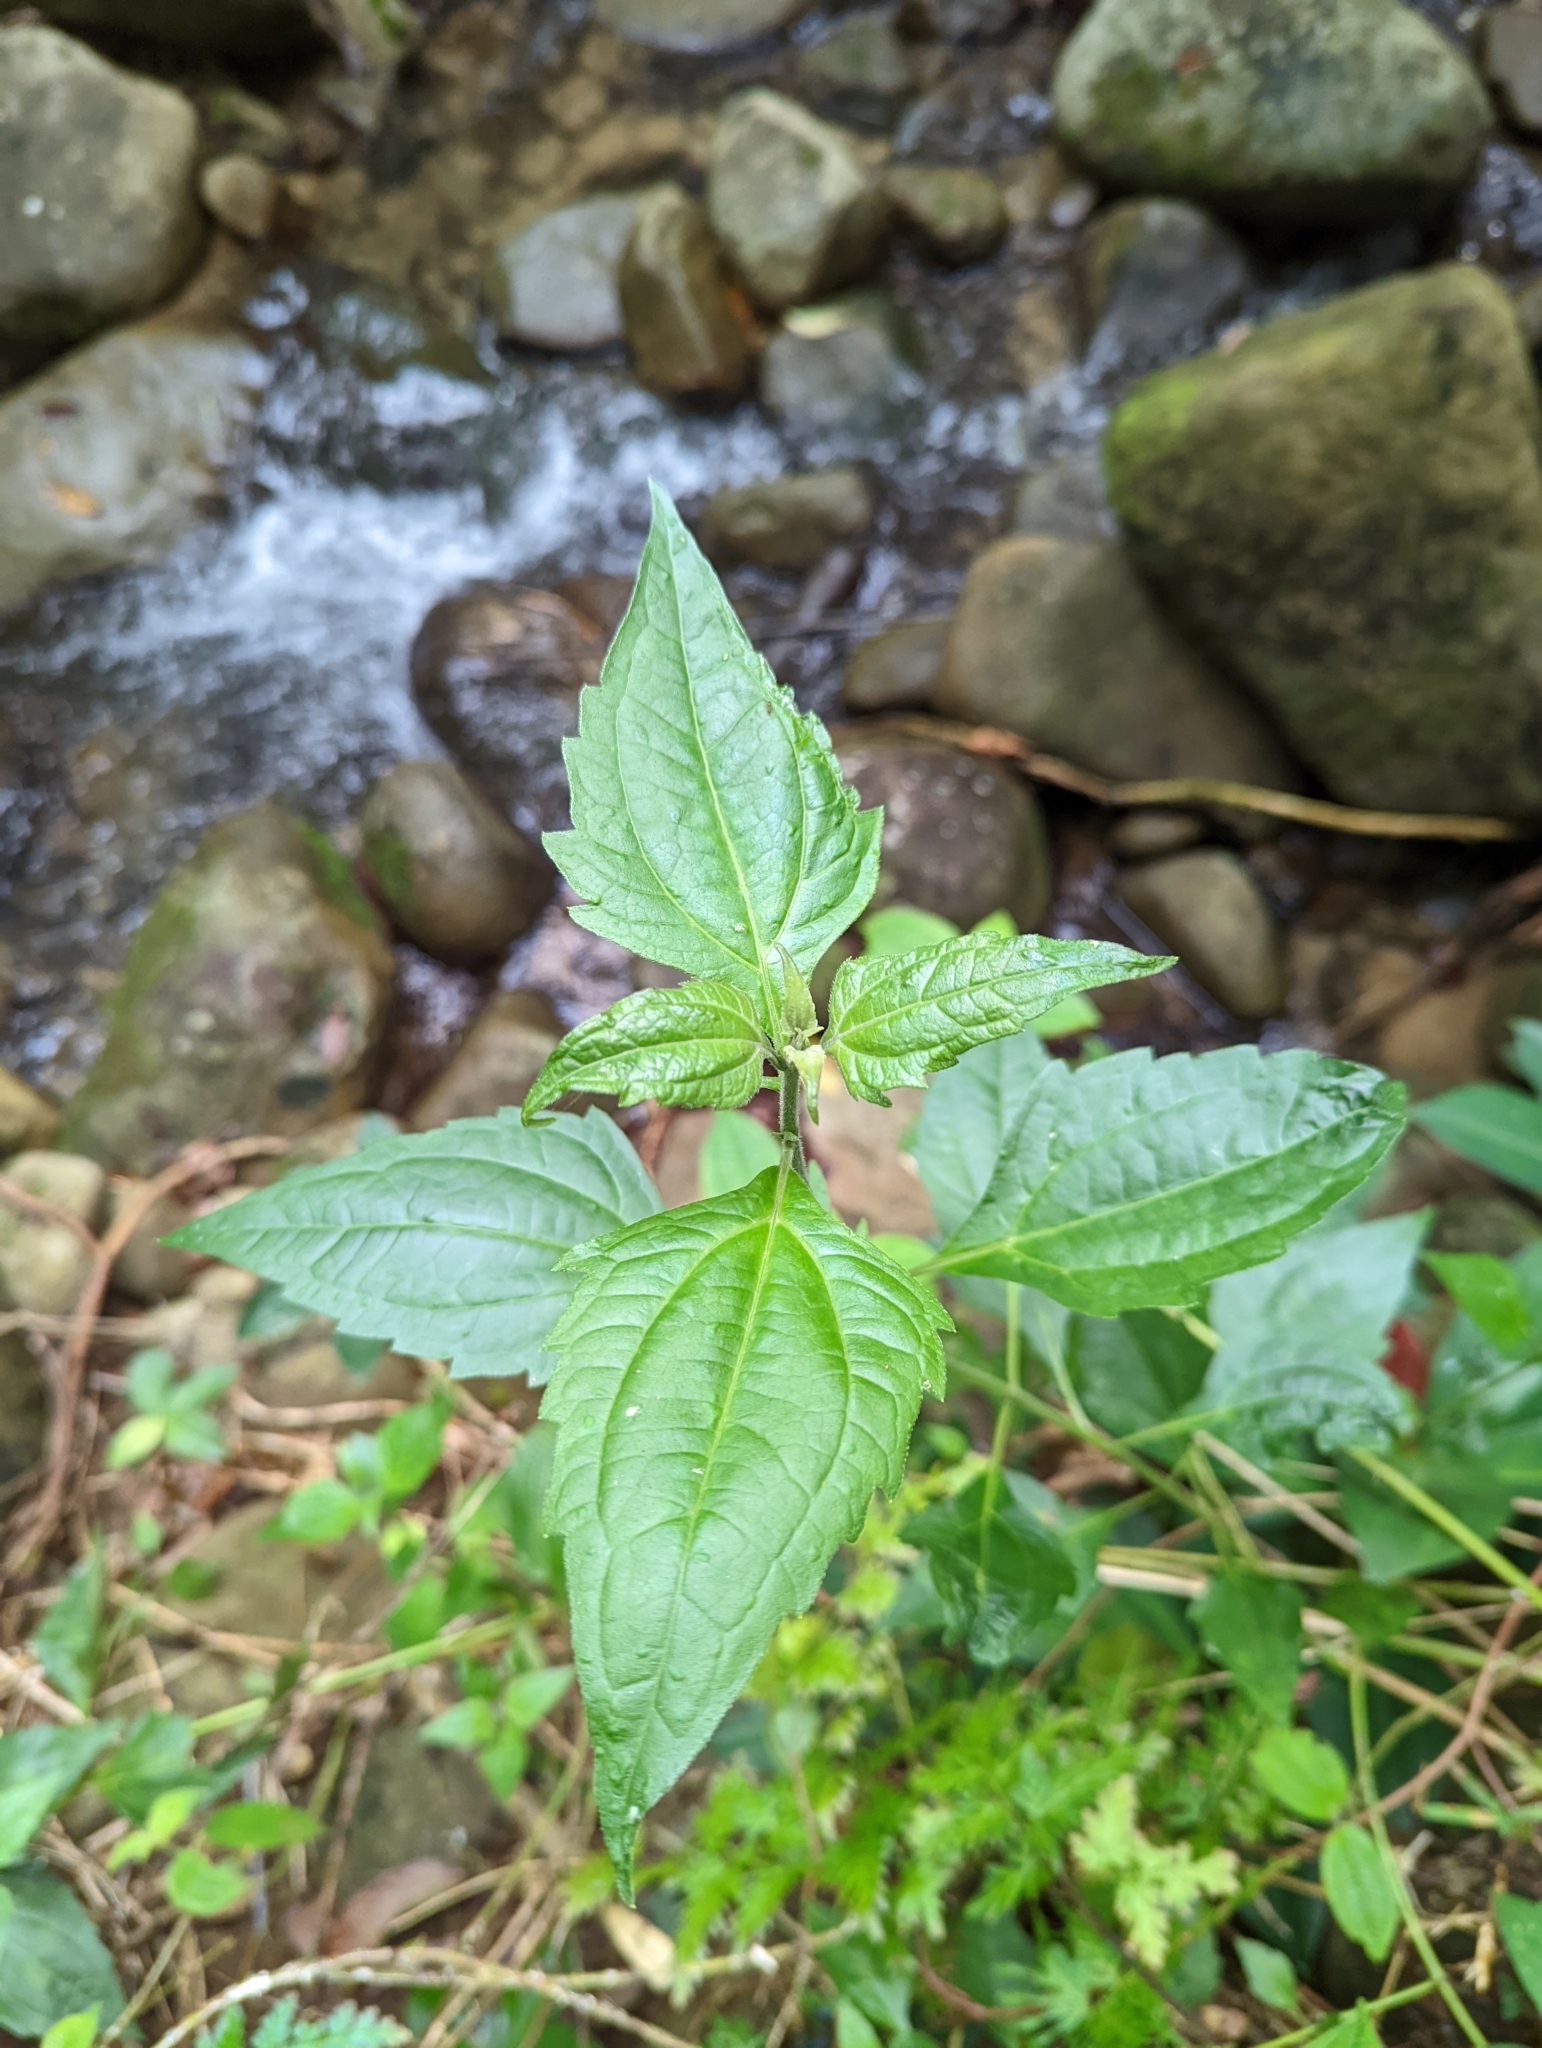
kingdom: Plantae
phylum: Tracheophyta
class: Magnoliopsida
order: Asterales
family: Asteraceae
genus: Chromolaena
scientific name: Chromolaena odorata
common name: Siamweed
